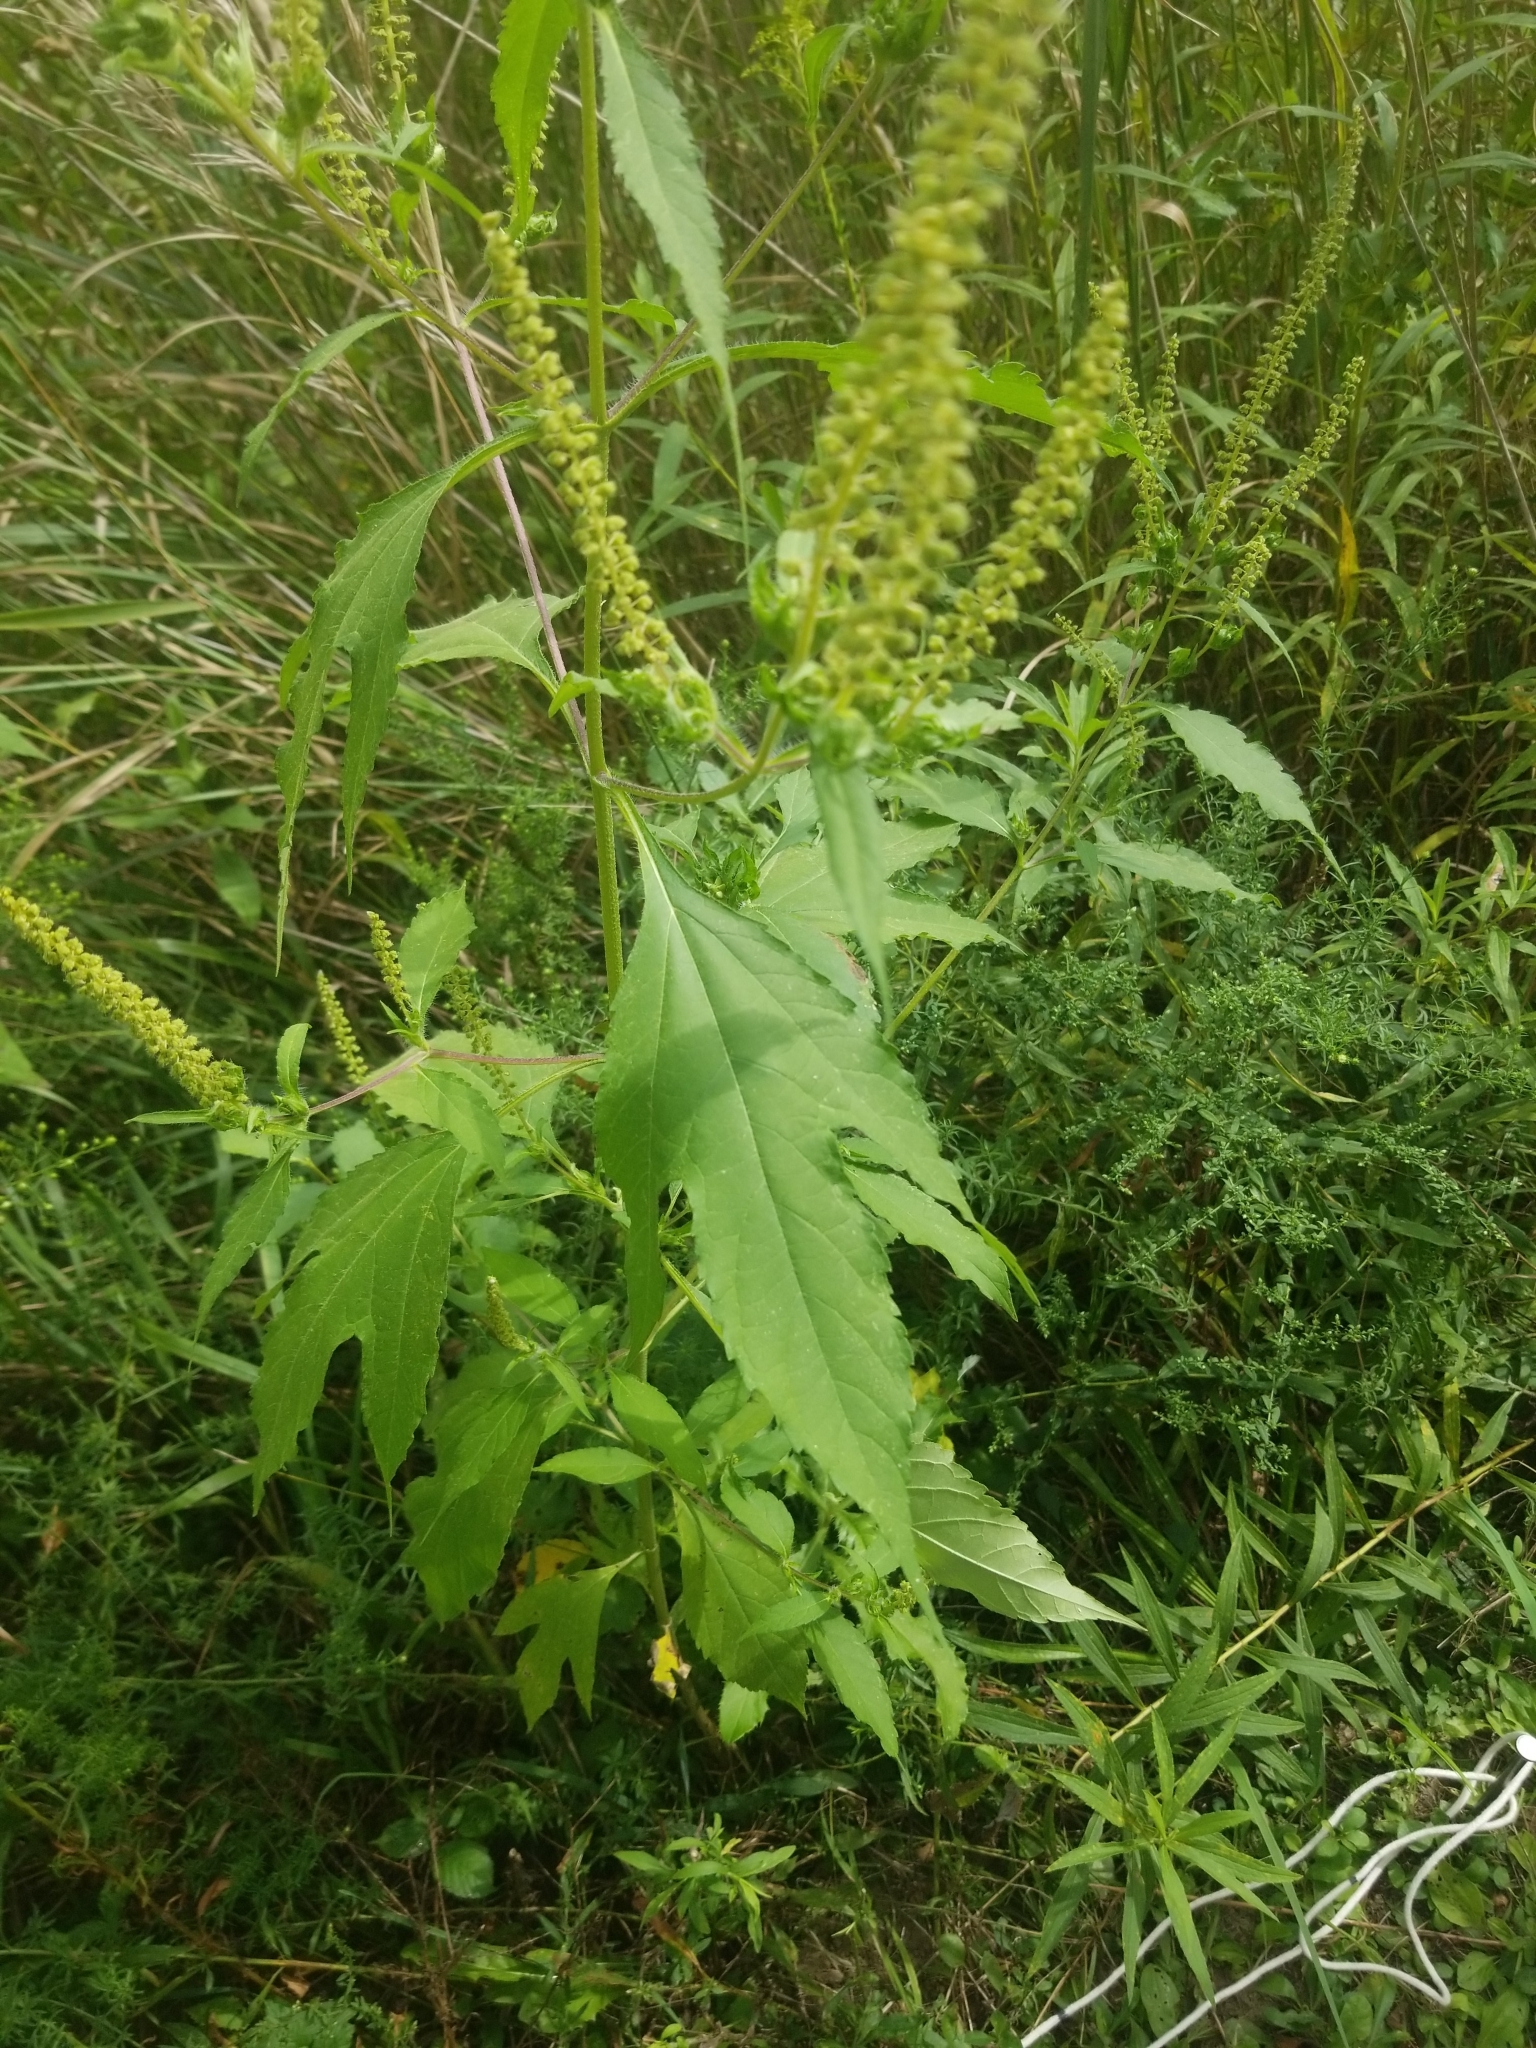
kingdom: Plantae
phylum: Tracheophyta
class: Magnoliopsida
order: Asterales
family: Asteraceae
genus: Ambrosia
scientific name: Ambrosia trifida
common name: Giant ragweed
